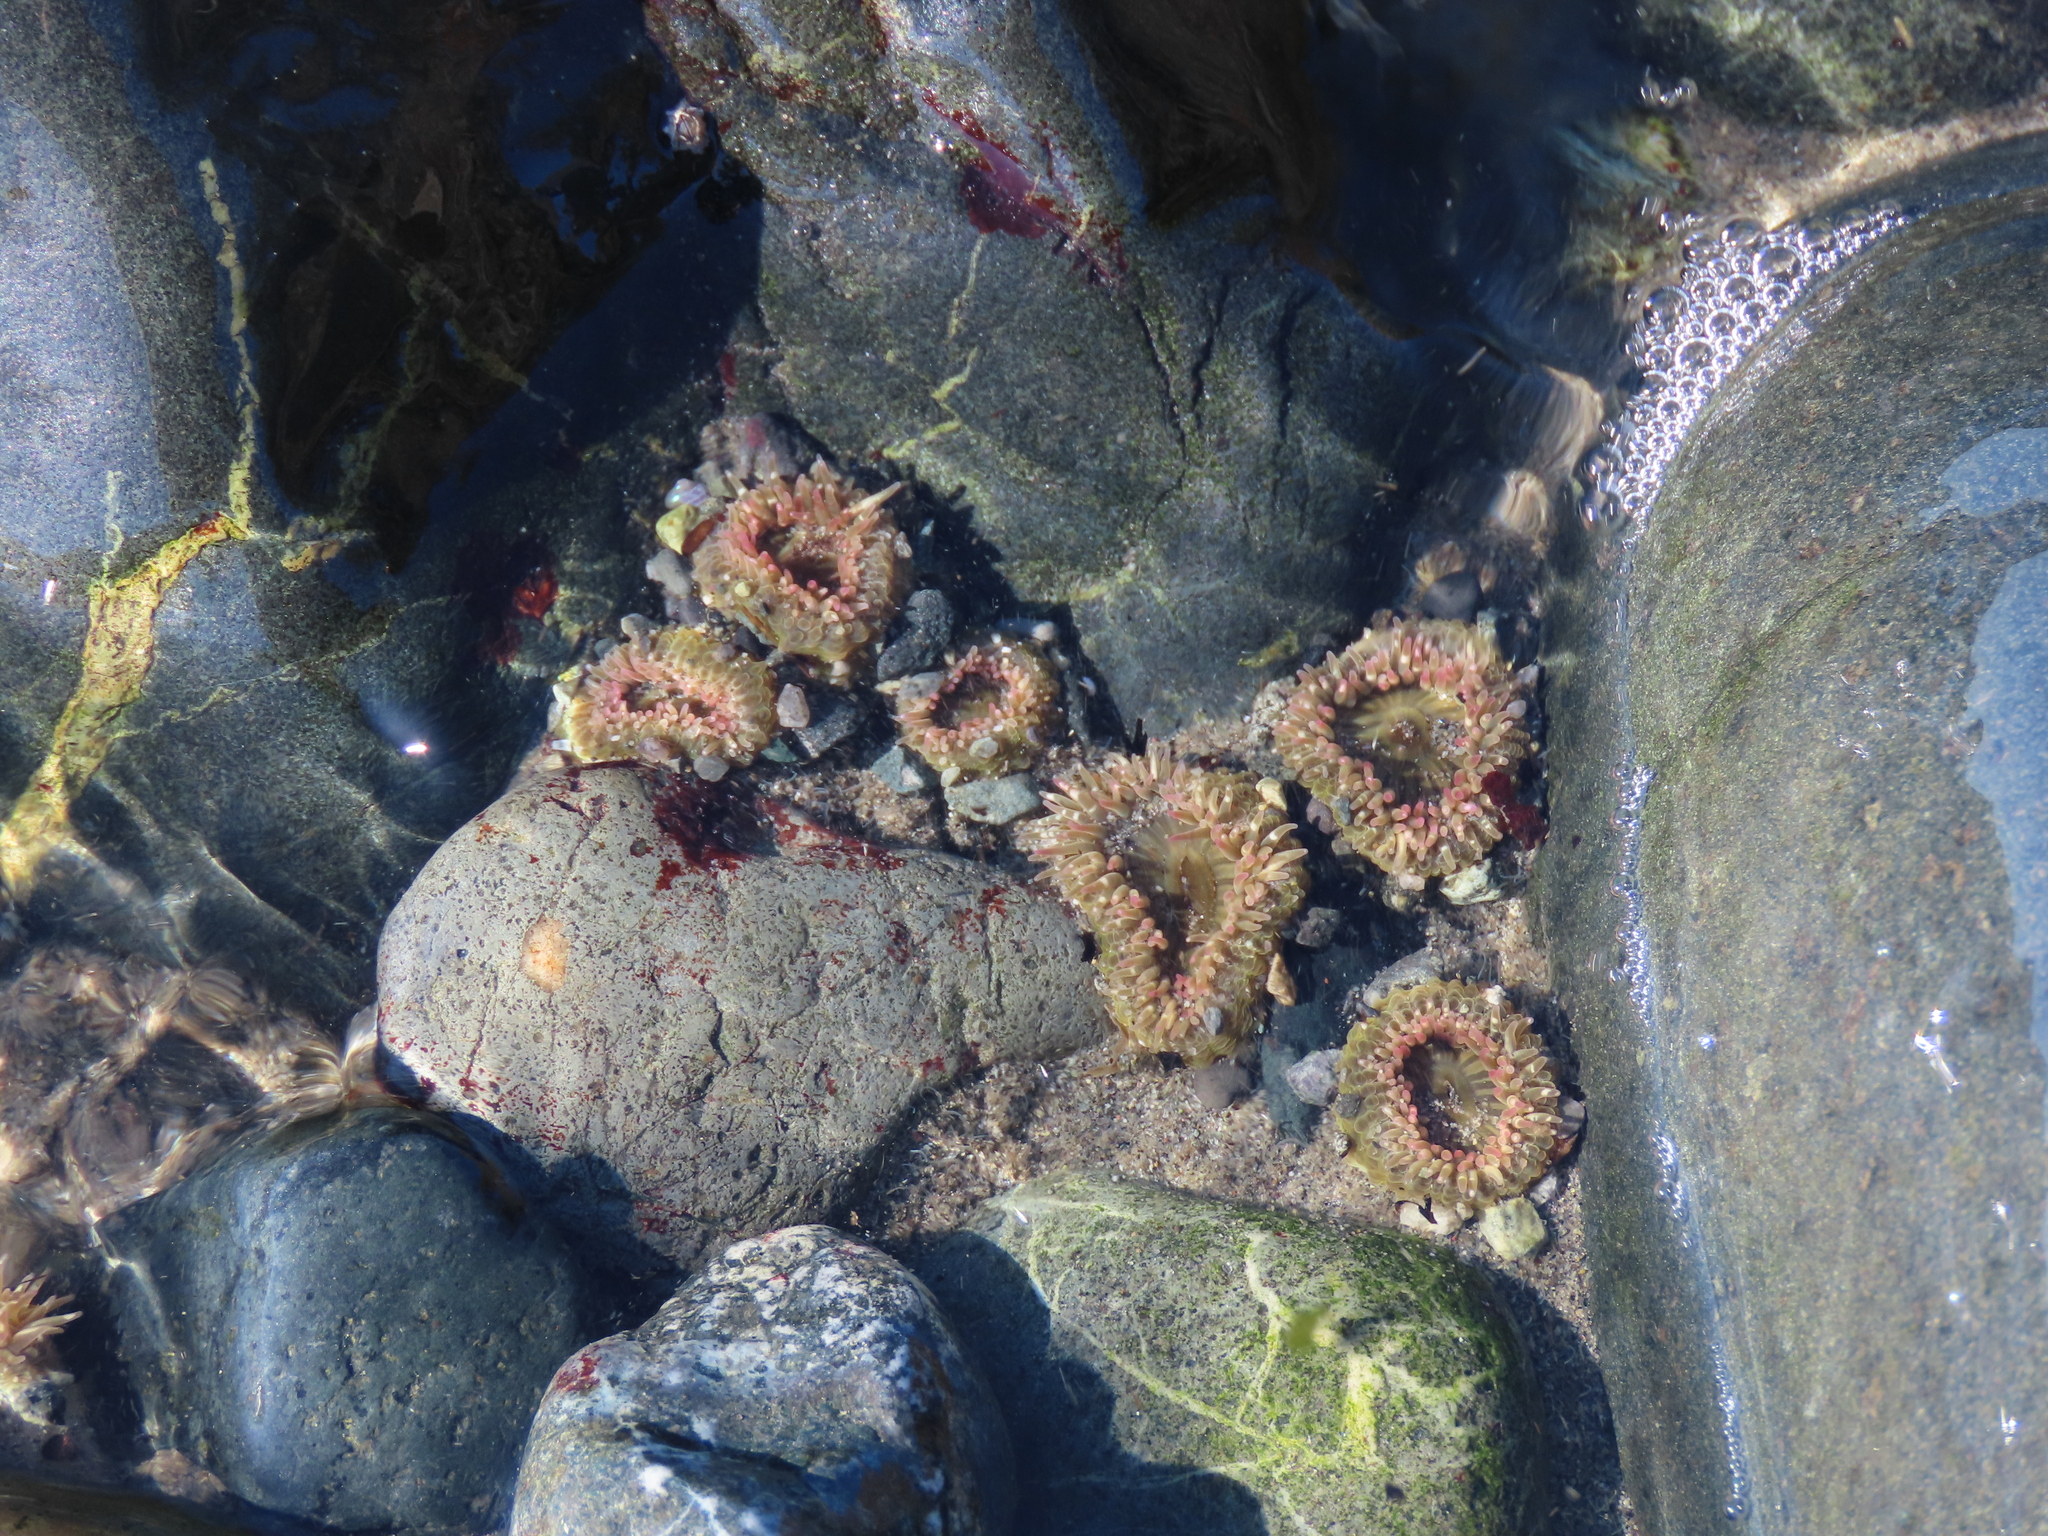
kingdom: Animalia
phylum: Cnidaria
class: Anthozoa
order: Actiniaria
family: Actiniidae
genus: Anthopleura
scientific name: Anthopleura elegantissima
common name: Clonal anemone
